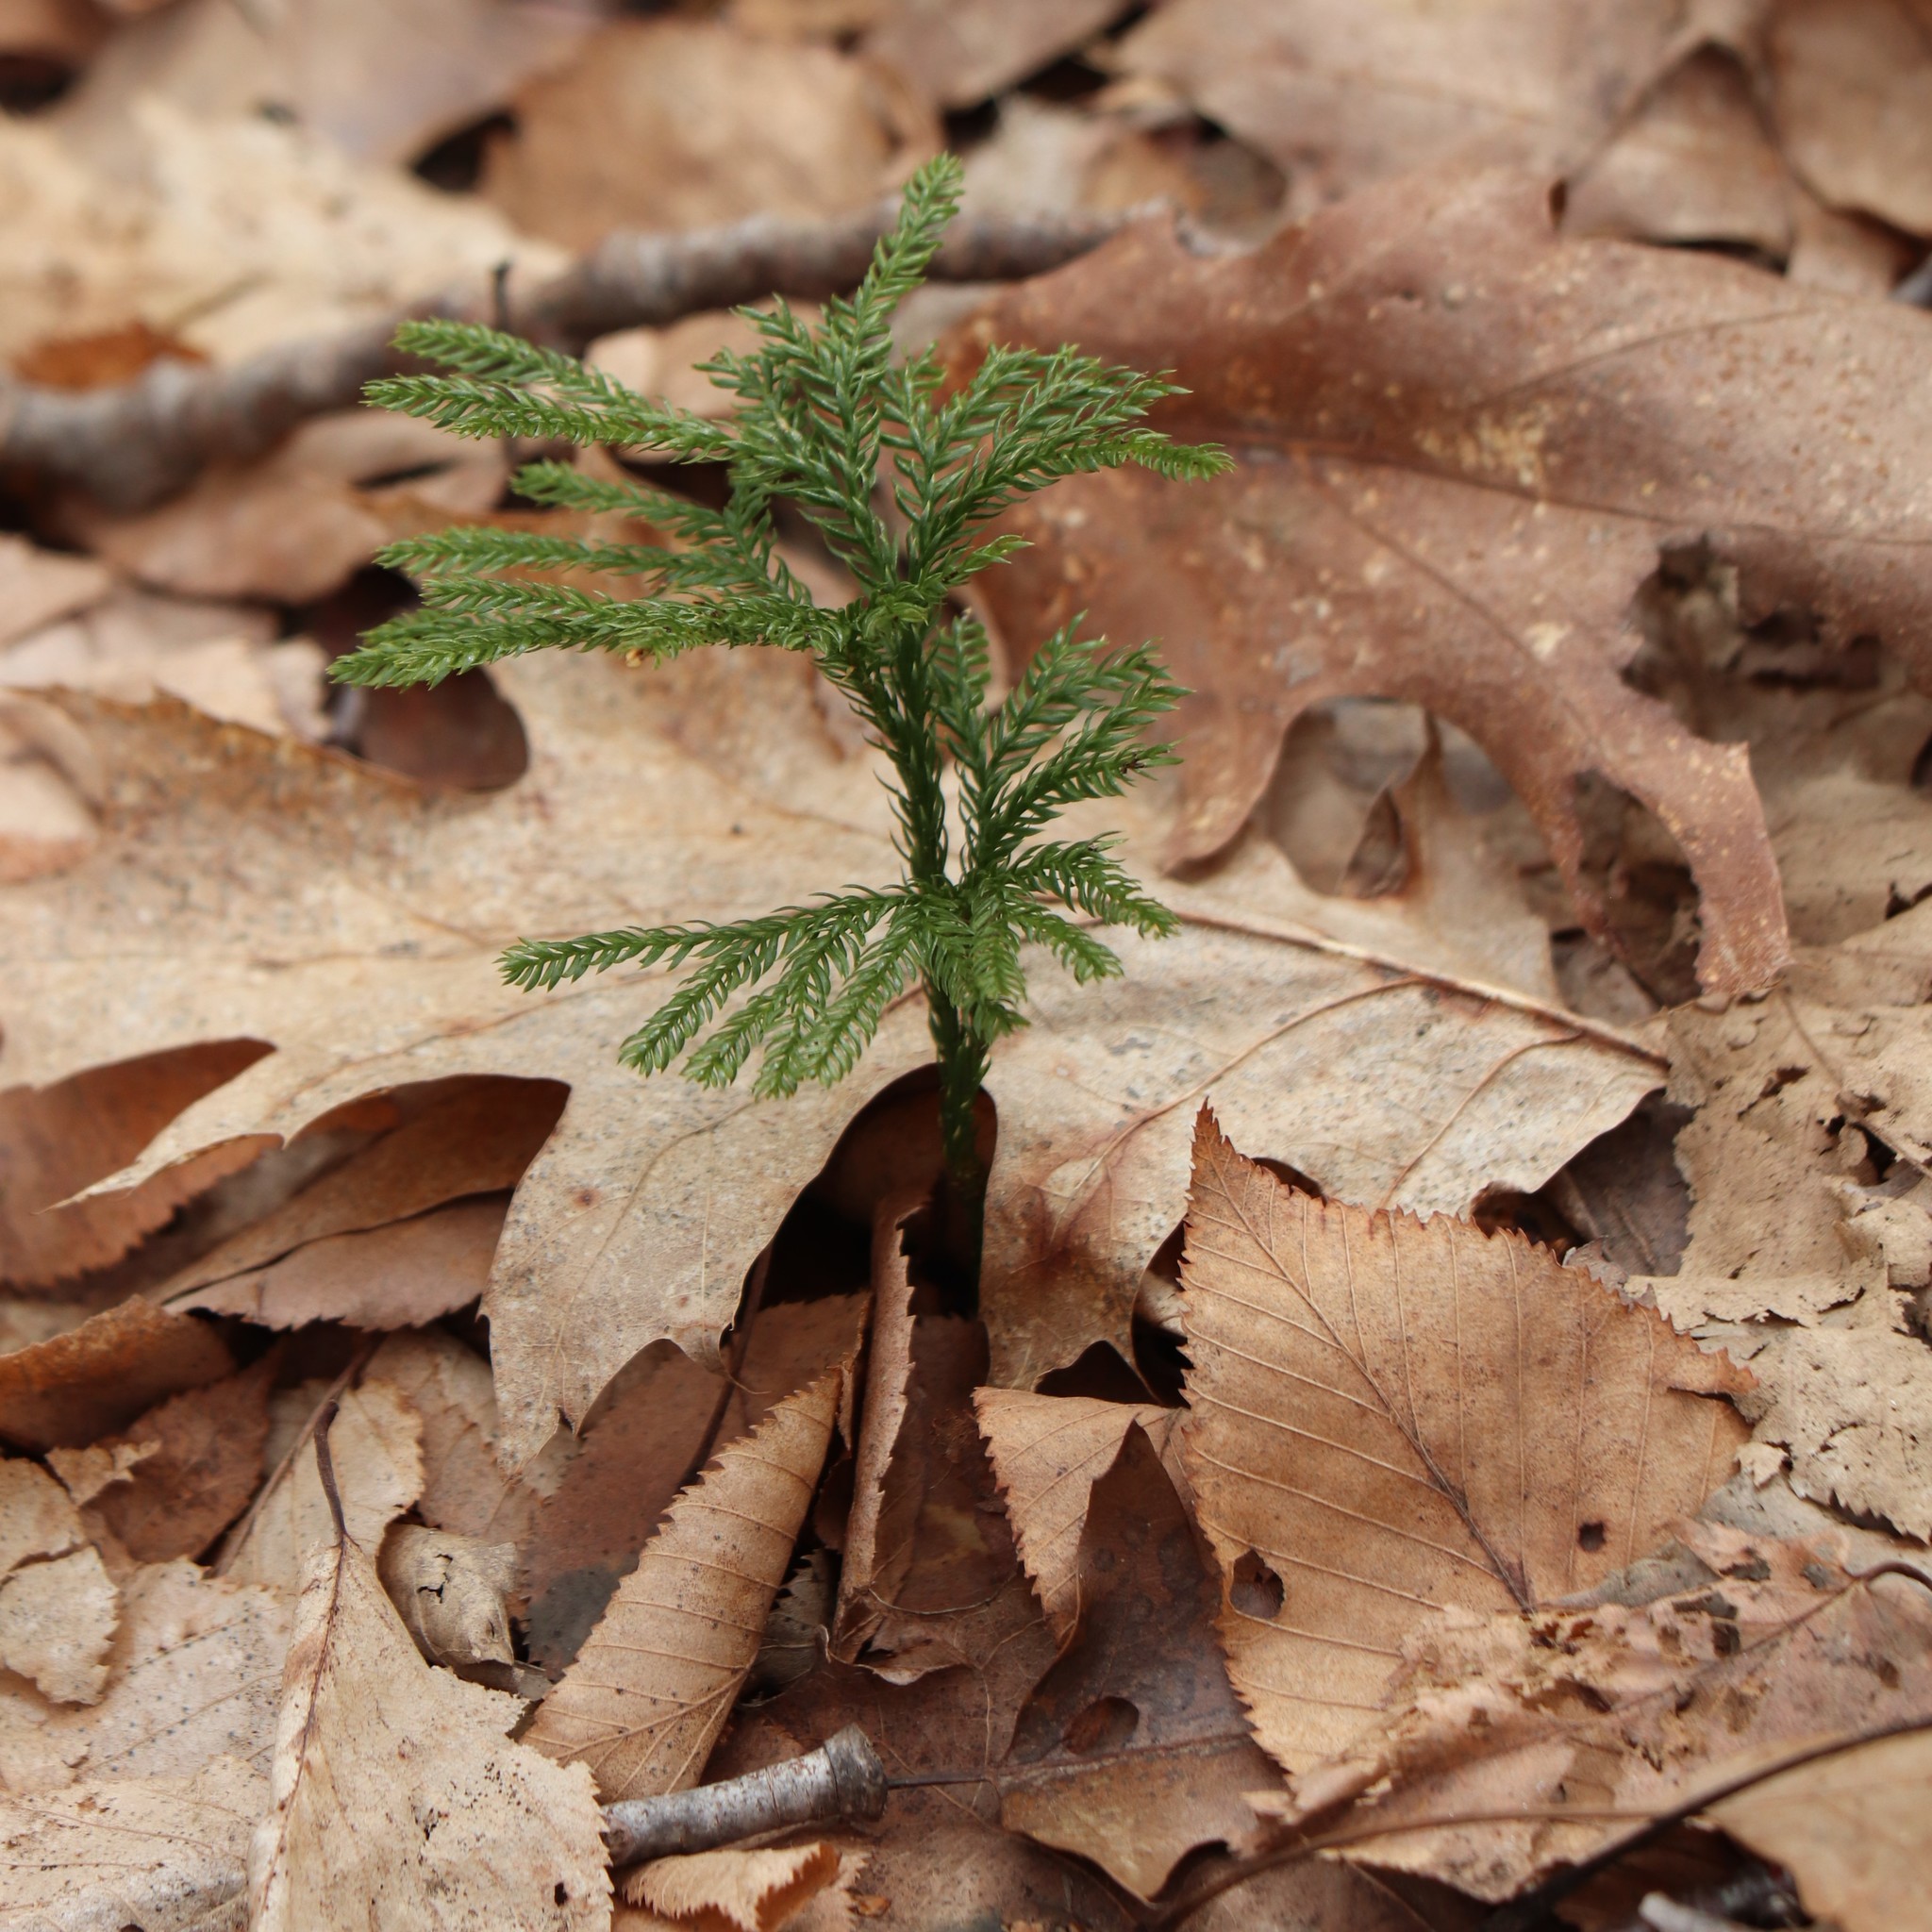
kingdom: Plantae
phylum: Tracheophyta
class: Lycopodiopsida
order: Lycopodiales
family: Lycopodiaceae
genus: Dendrolycopodium
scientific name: Dendrolycopodium obscurum
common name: Common ground-pine
